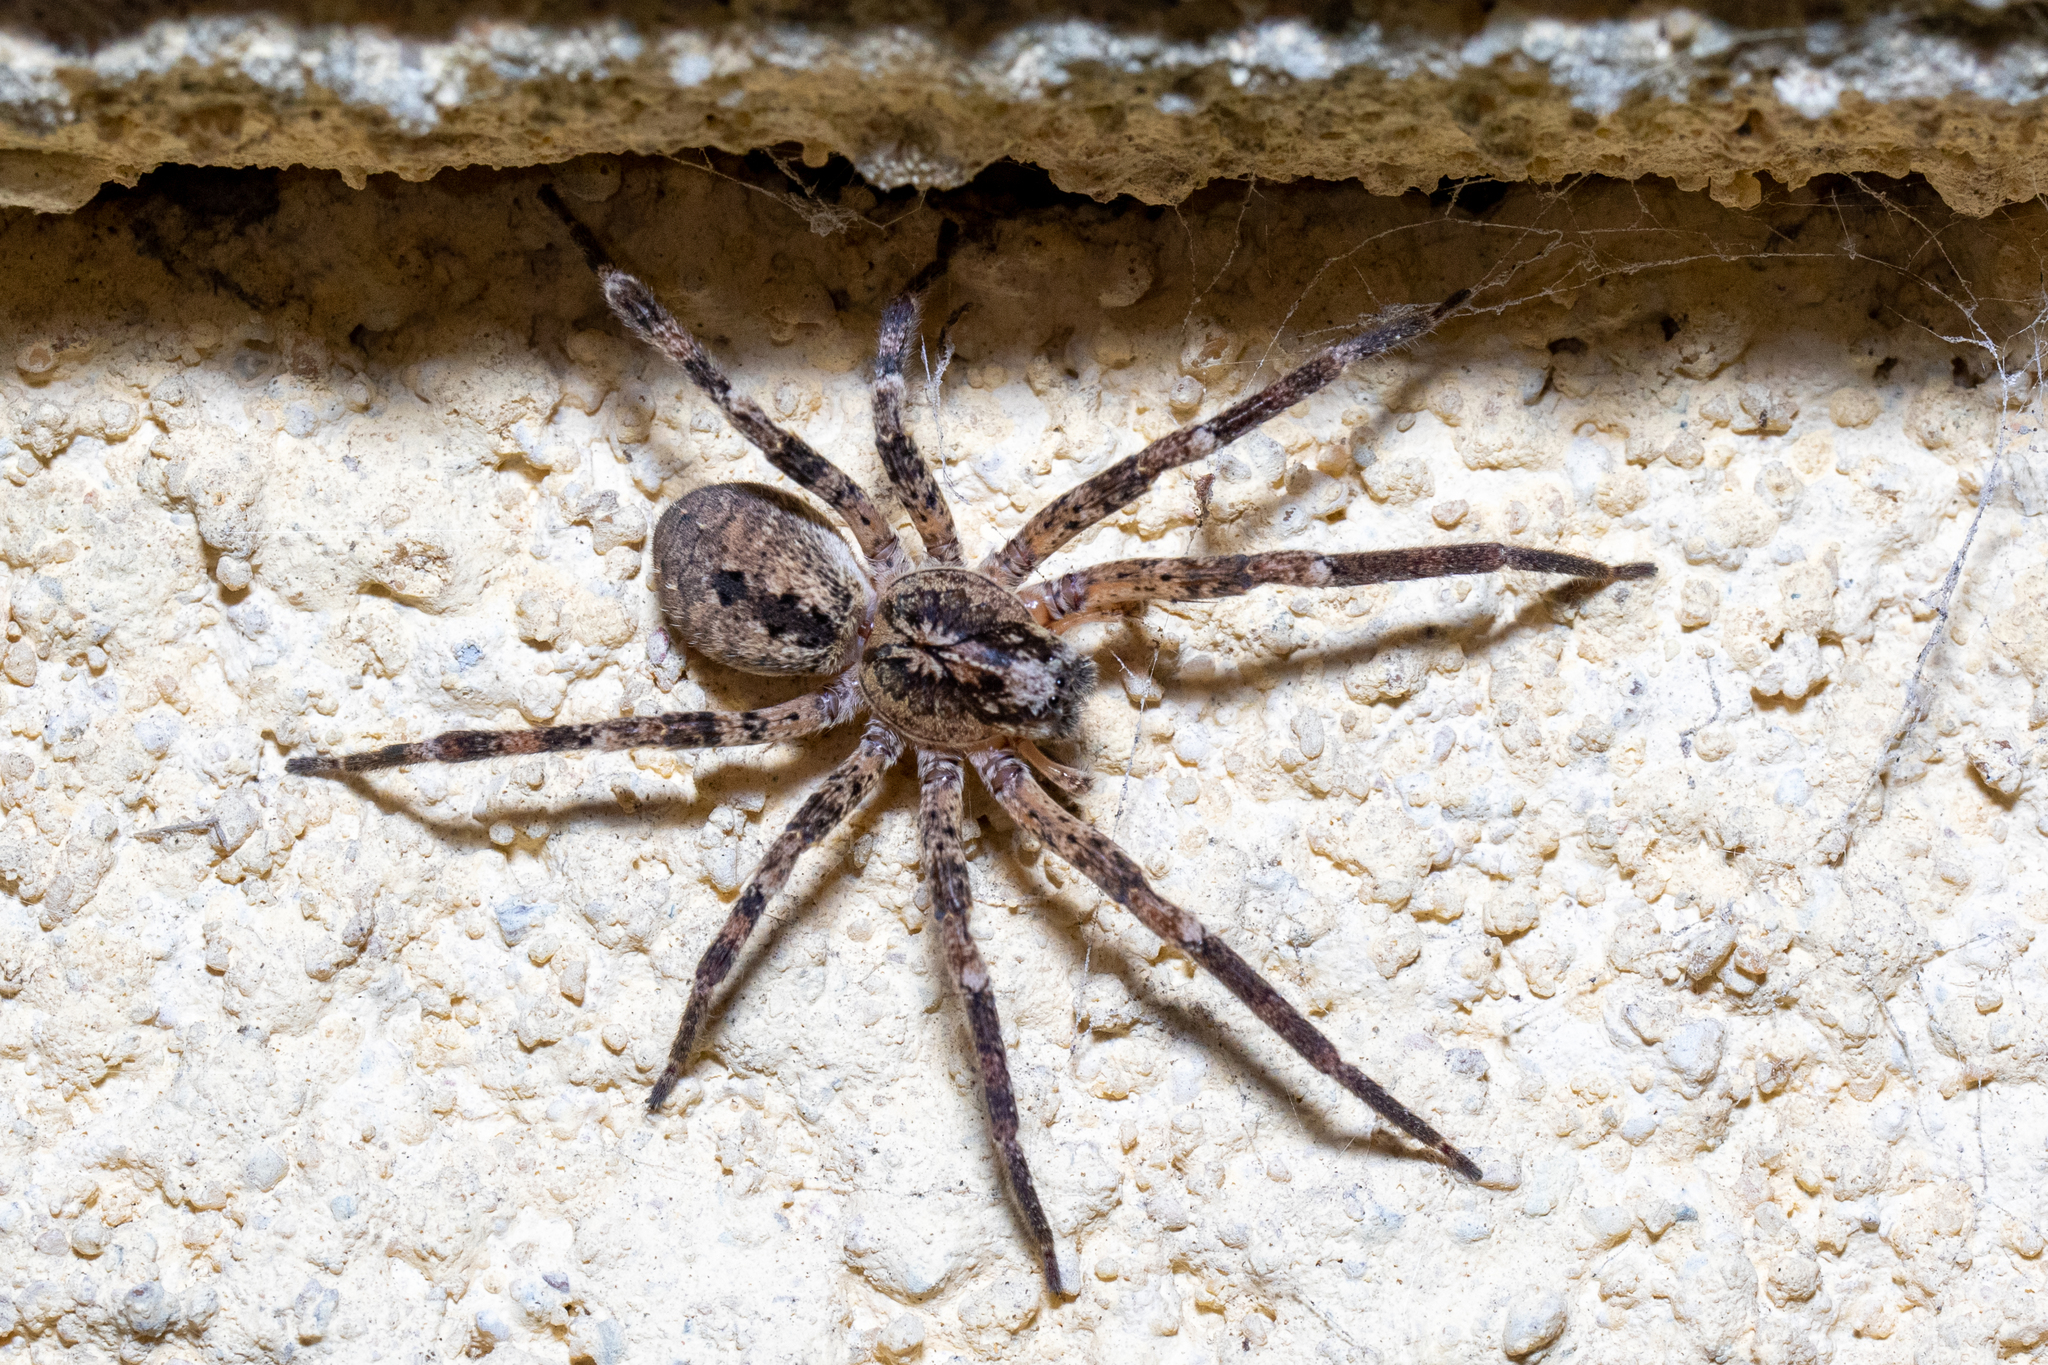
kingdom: Animalia
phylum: Arthropoda
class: Arachnida
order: Araneae
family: Zoropsidae
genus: Zoropsis
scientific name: Zoropsis spinimana
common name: Zoropsid spider
